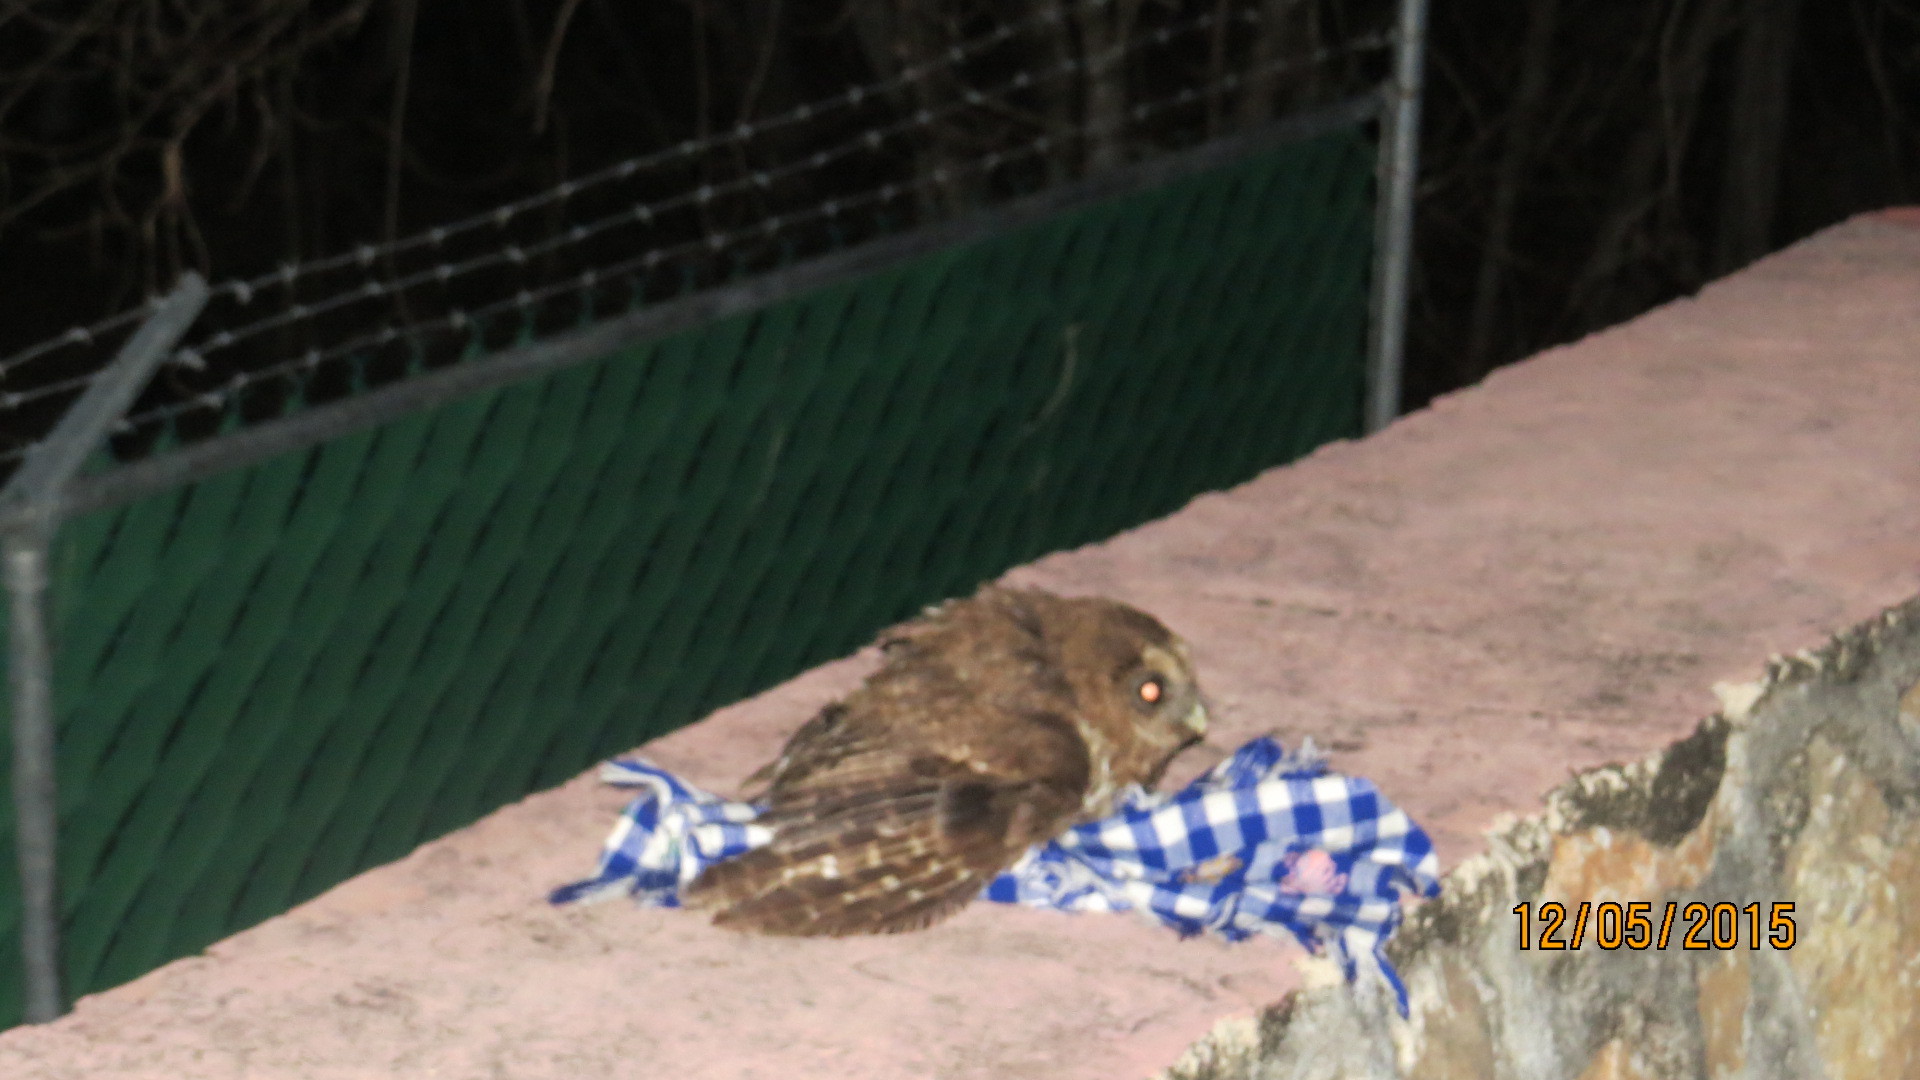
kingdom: Animalia
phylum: Chordata
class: Aves
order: Strigiformes
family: Strigidae
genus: Strix
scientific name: Strix virgata
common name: Mottled owl
